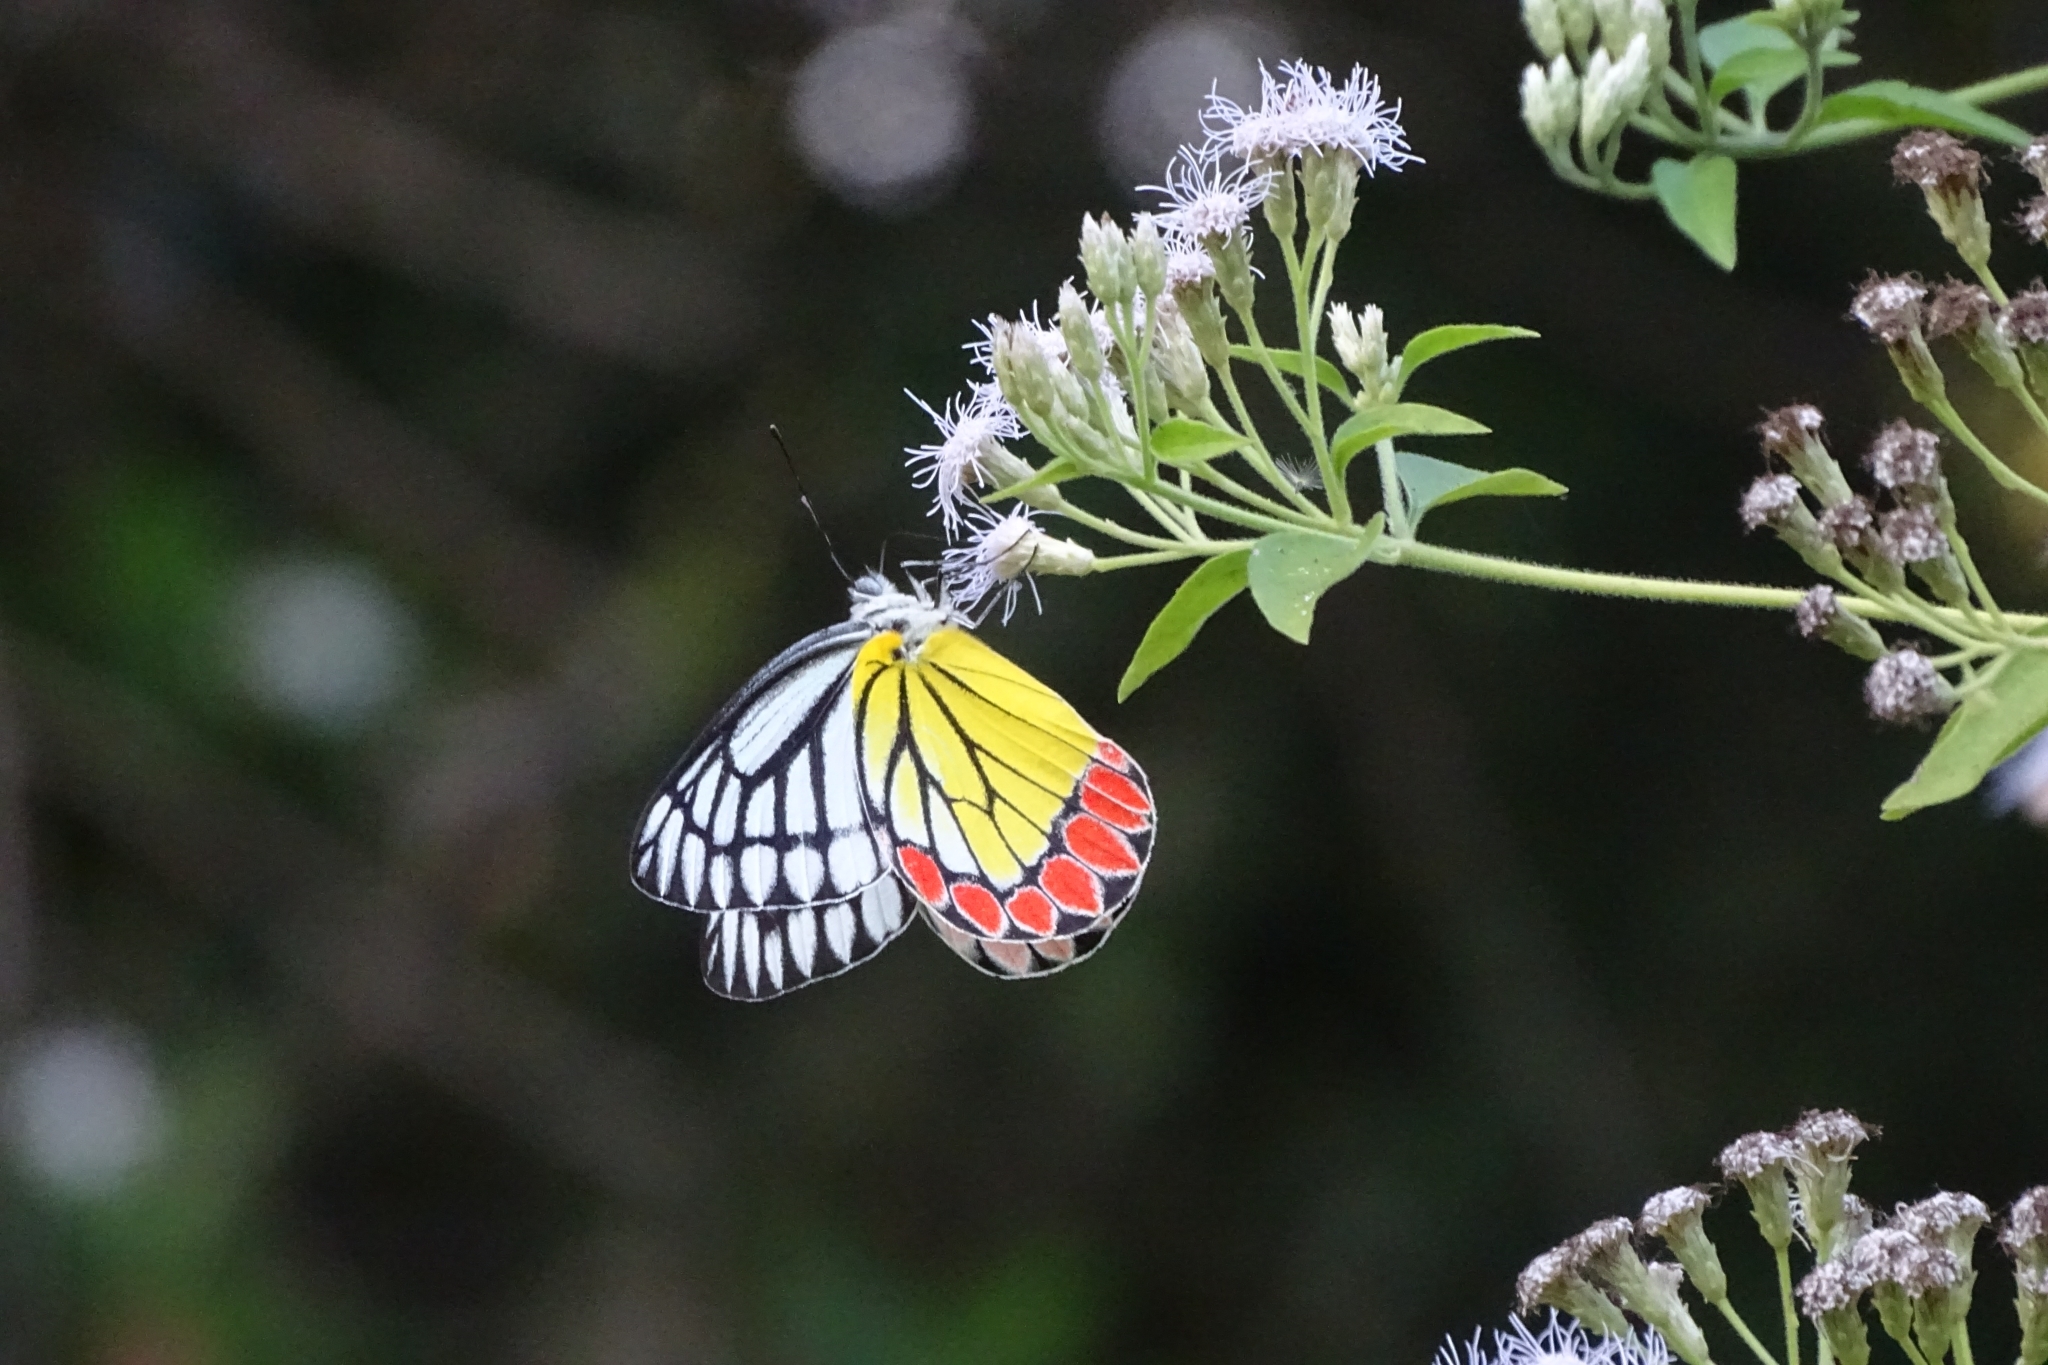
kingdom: Animalia
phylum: Arthropoda
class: Insecta
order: Lepidoptera
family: Pieridae
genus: Delias
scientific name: Delias eucharis
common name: Common jezebel
